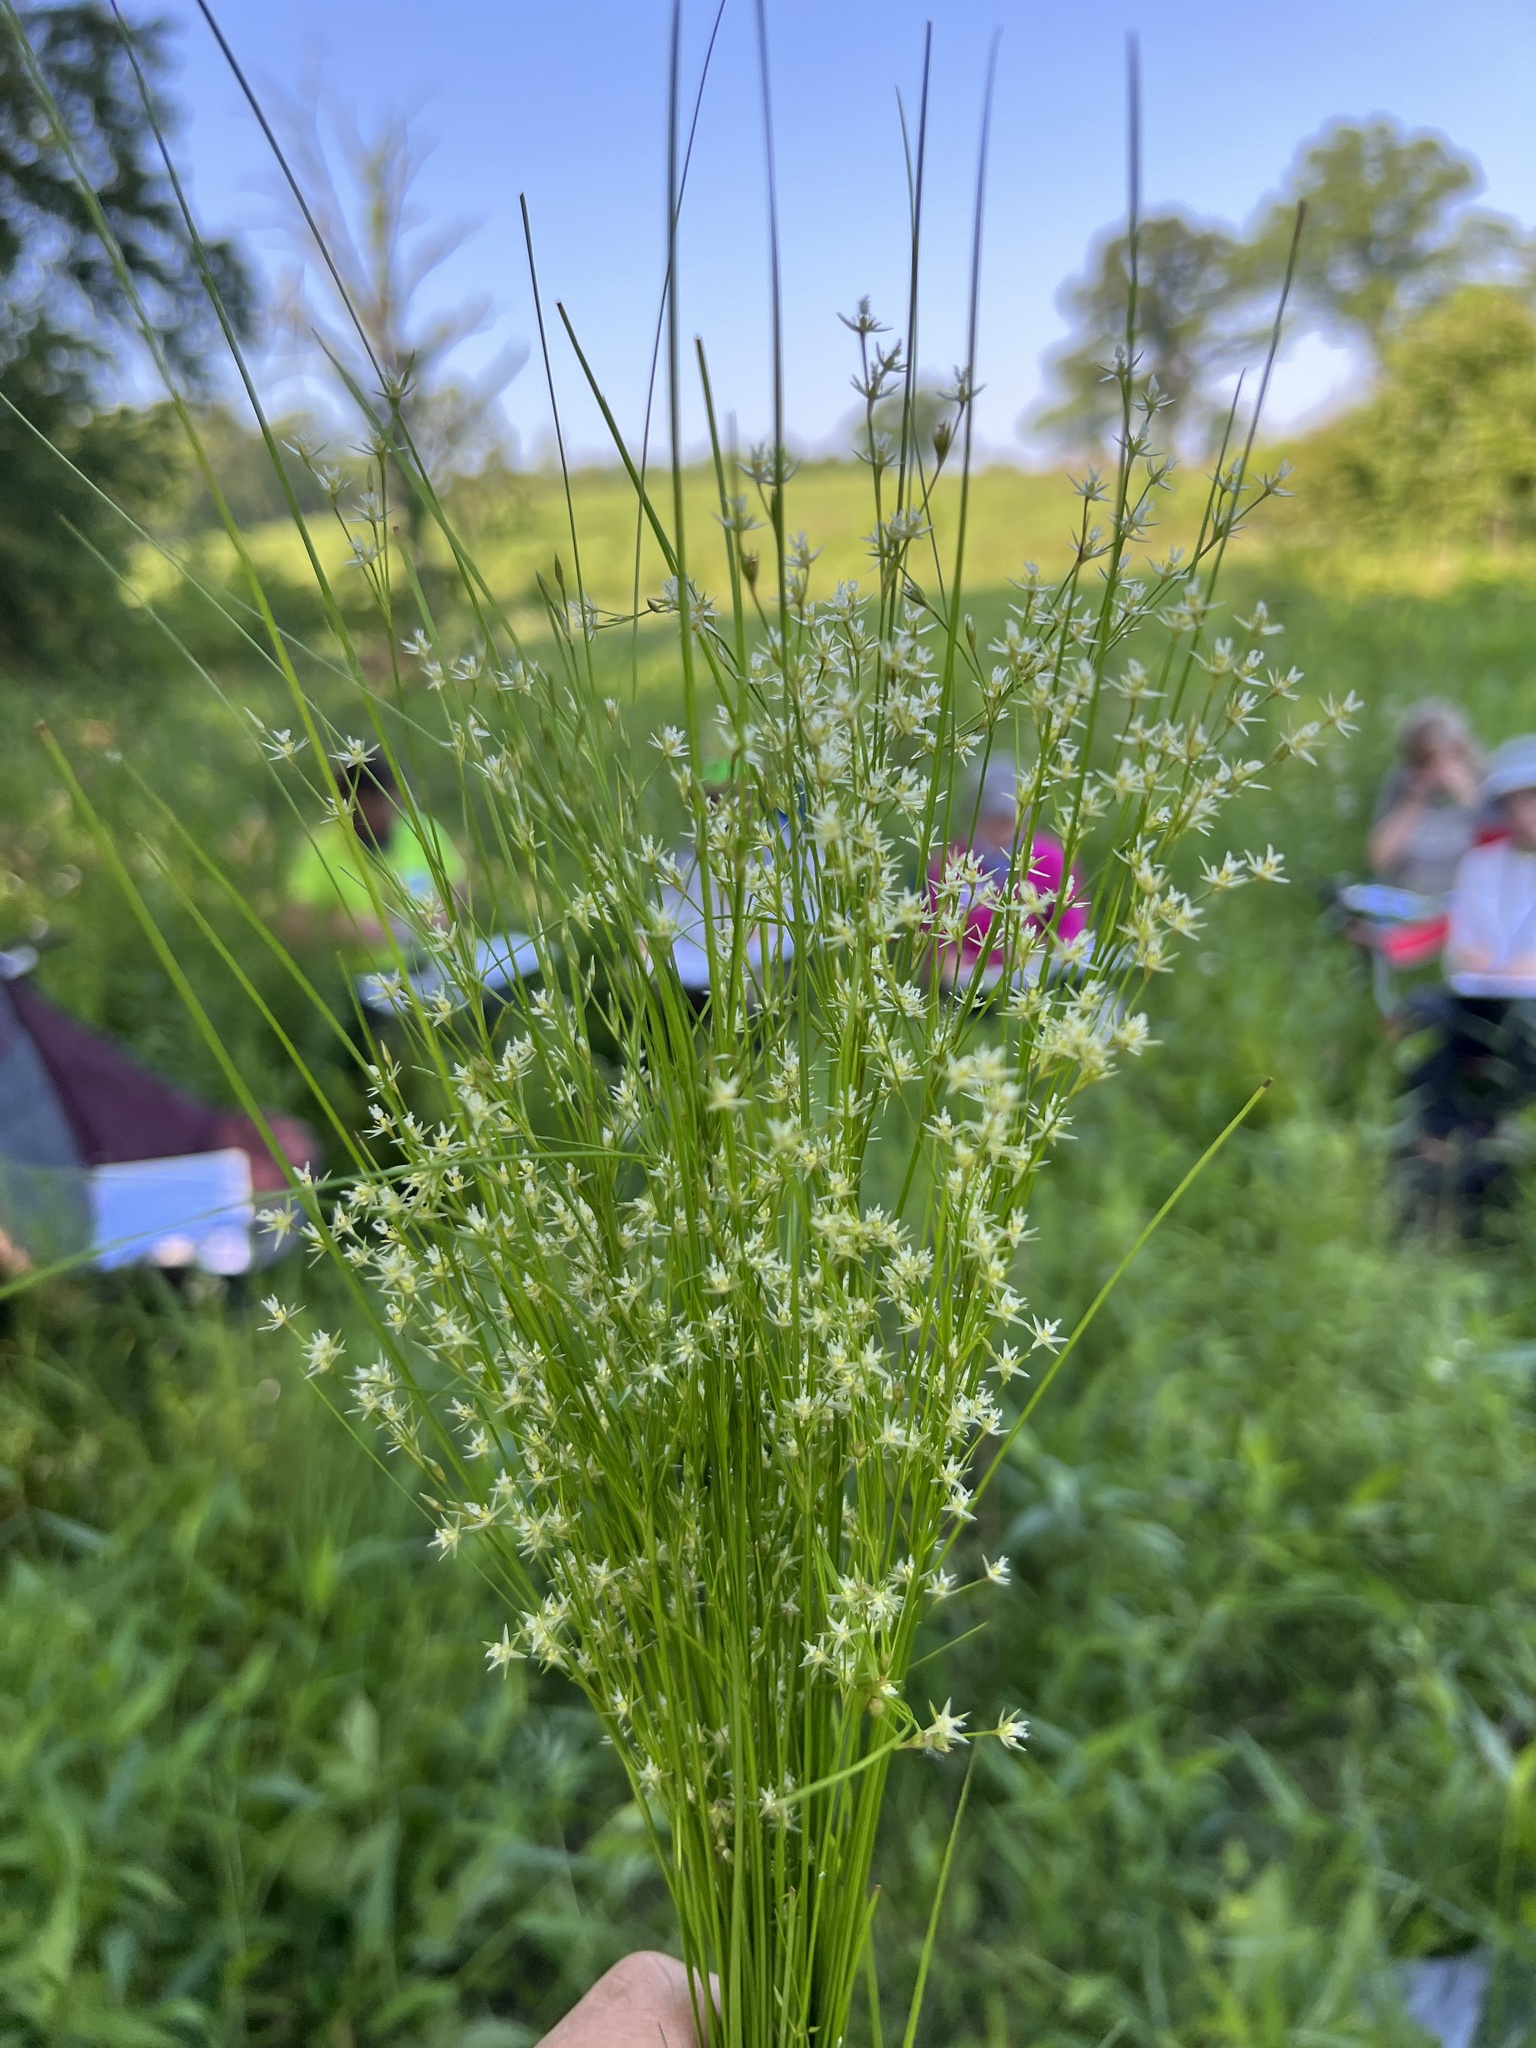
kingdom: Plantae
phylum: Tracheophyta
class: Liliopsida
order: Poales
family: Juncaceae
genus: Juncus
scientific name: Juncus tenuis
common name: Slender rush
